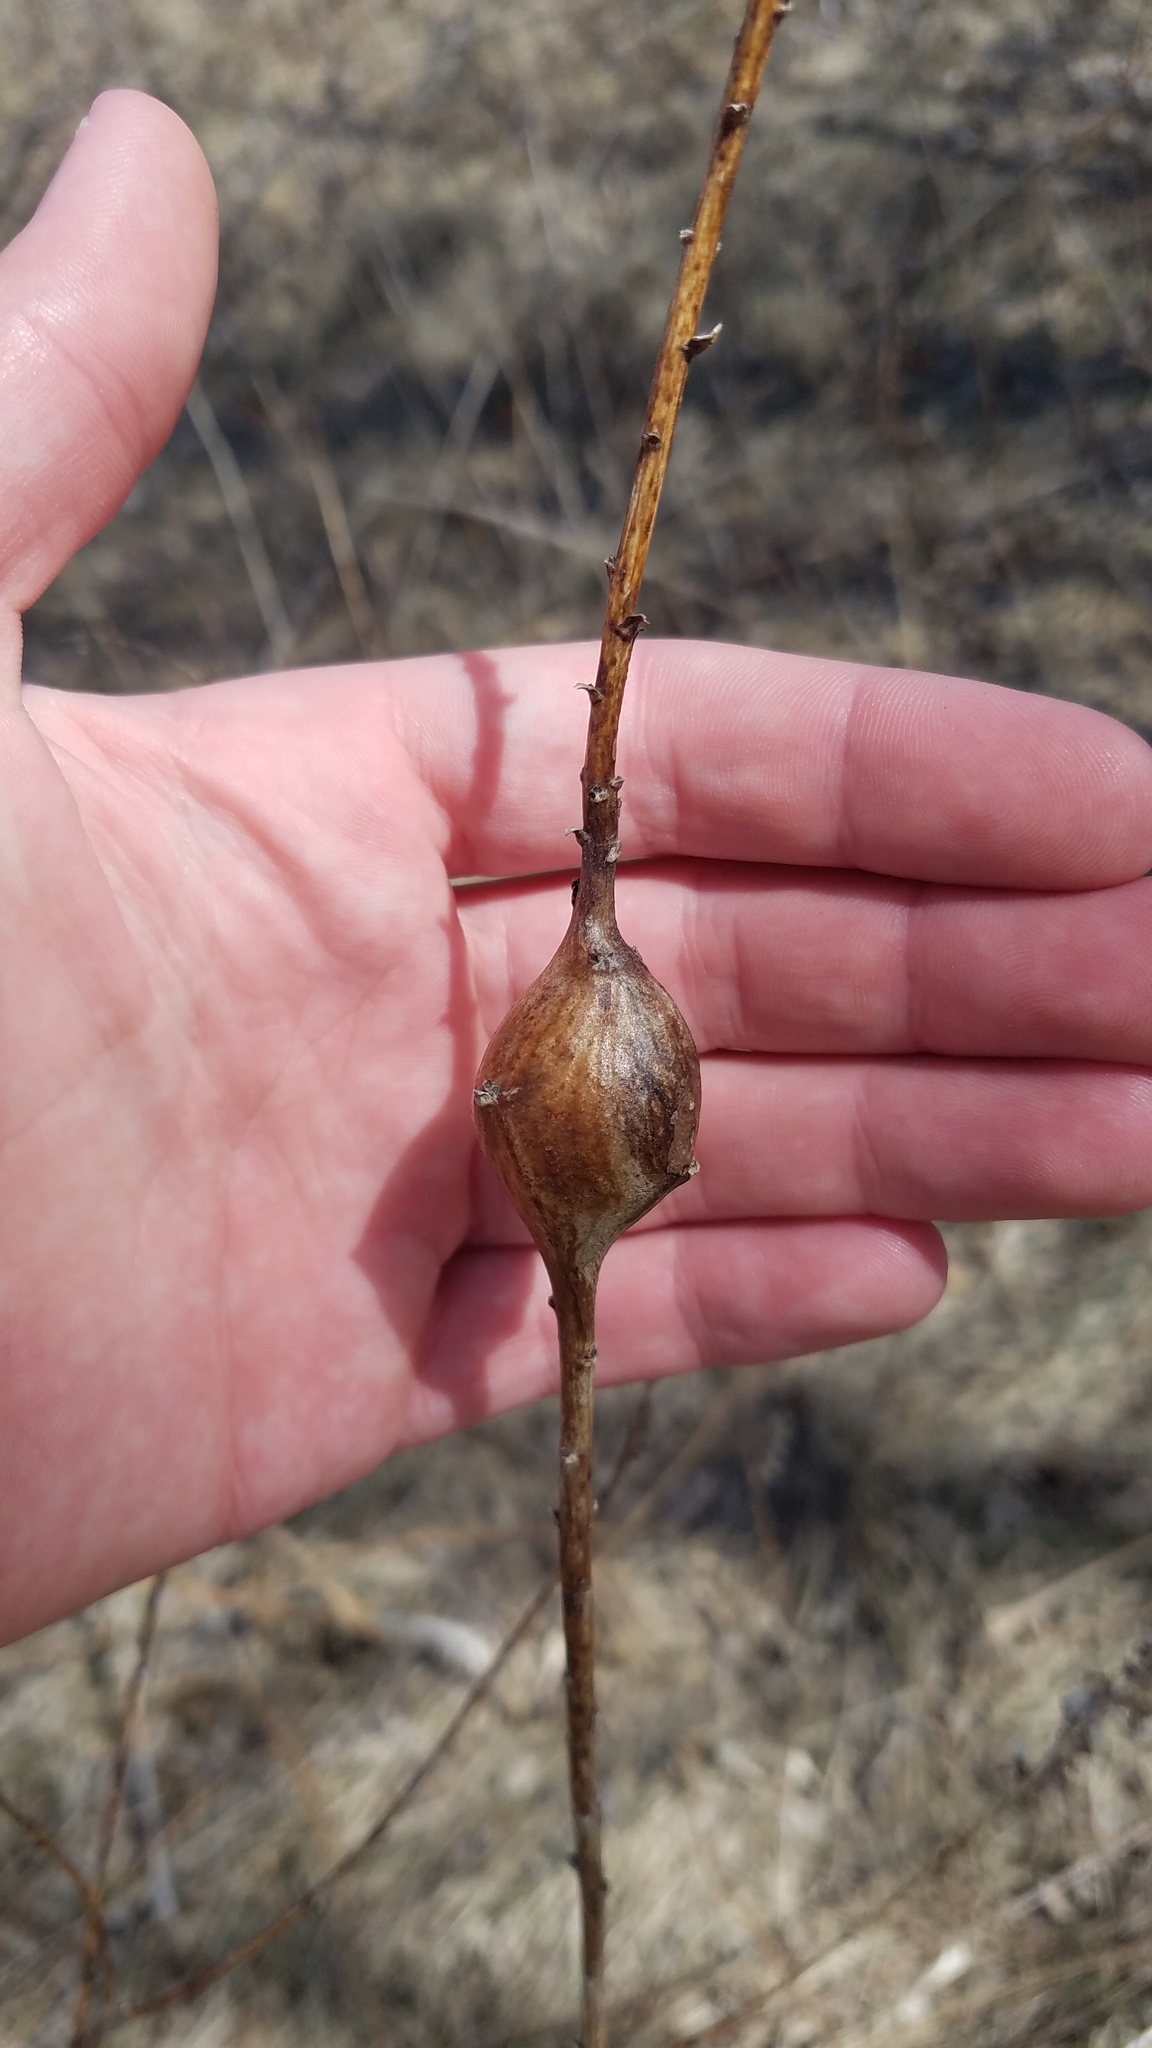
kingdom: Animalia
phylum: Arthropoda
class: Insecta
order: Diptera
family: Tephritidae
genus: Eurosta
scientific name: Eurosta solidaginis
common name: Goldenrod gall fly
